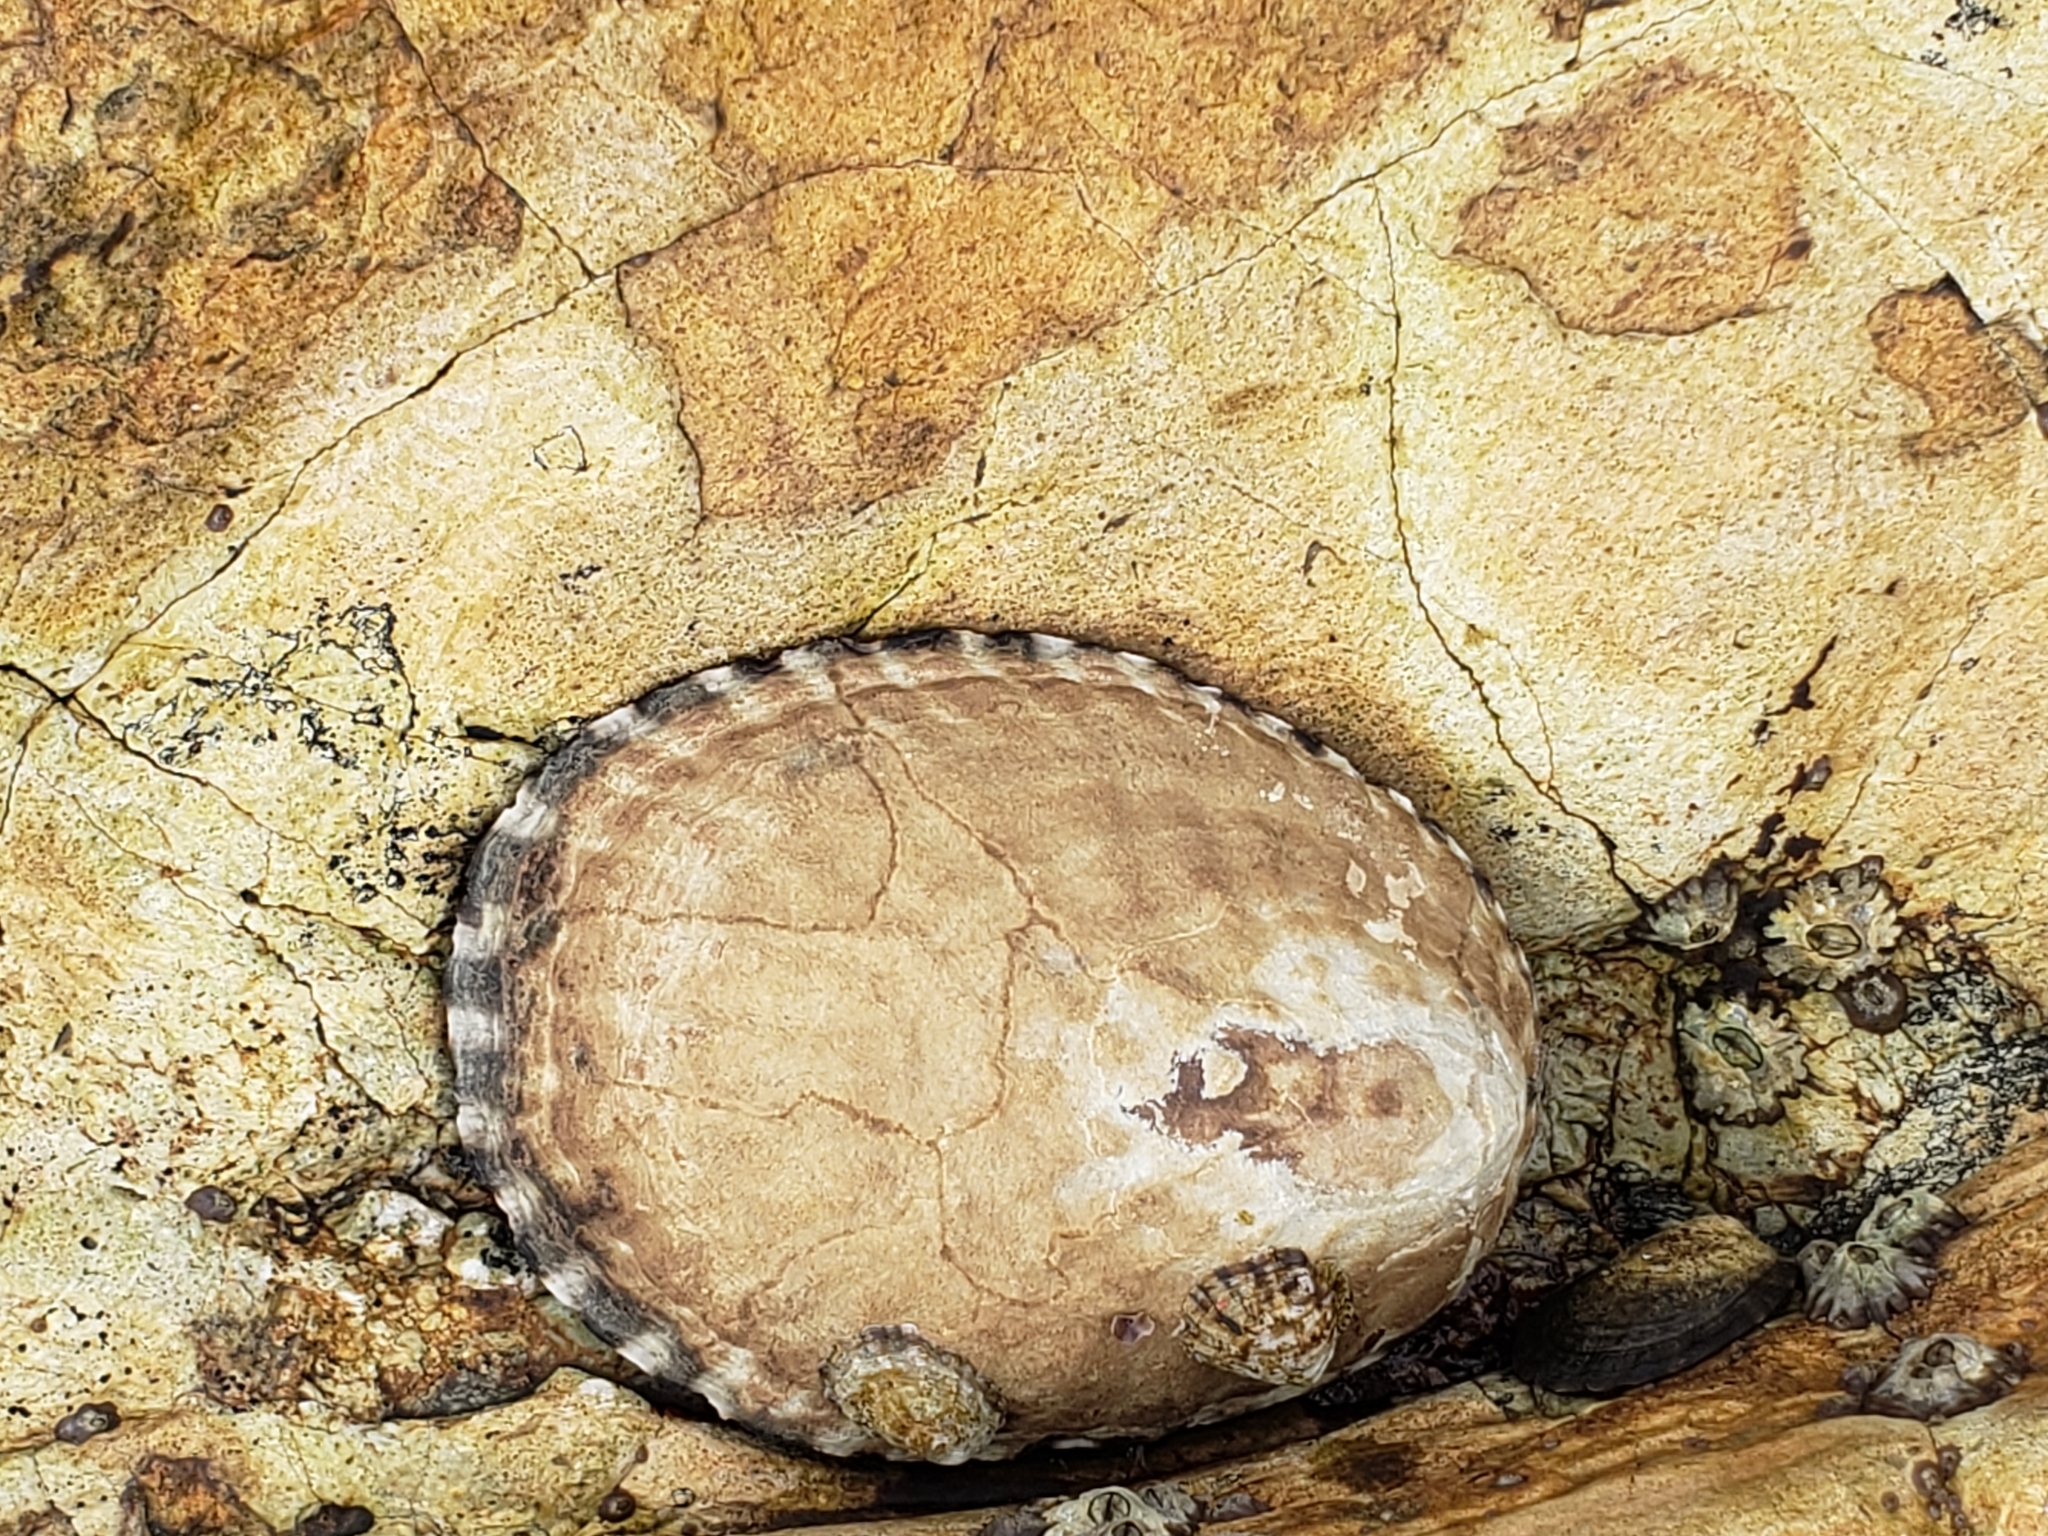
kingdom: Animalia
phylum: Mollusca
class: Gastropoda
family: Lottiidae
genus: Lottia
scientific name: Lottia gigantea
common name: Owl limpet
